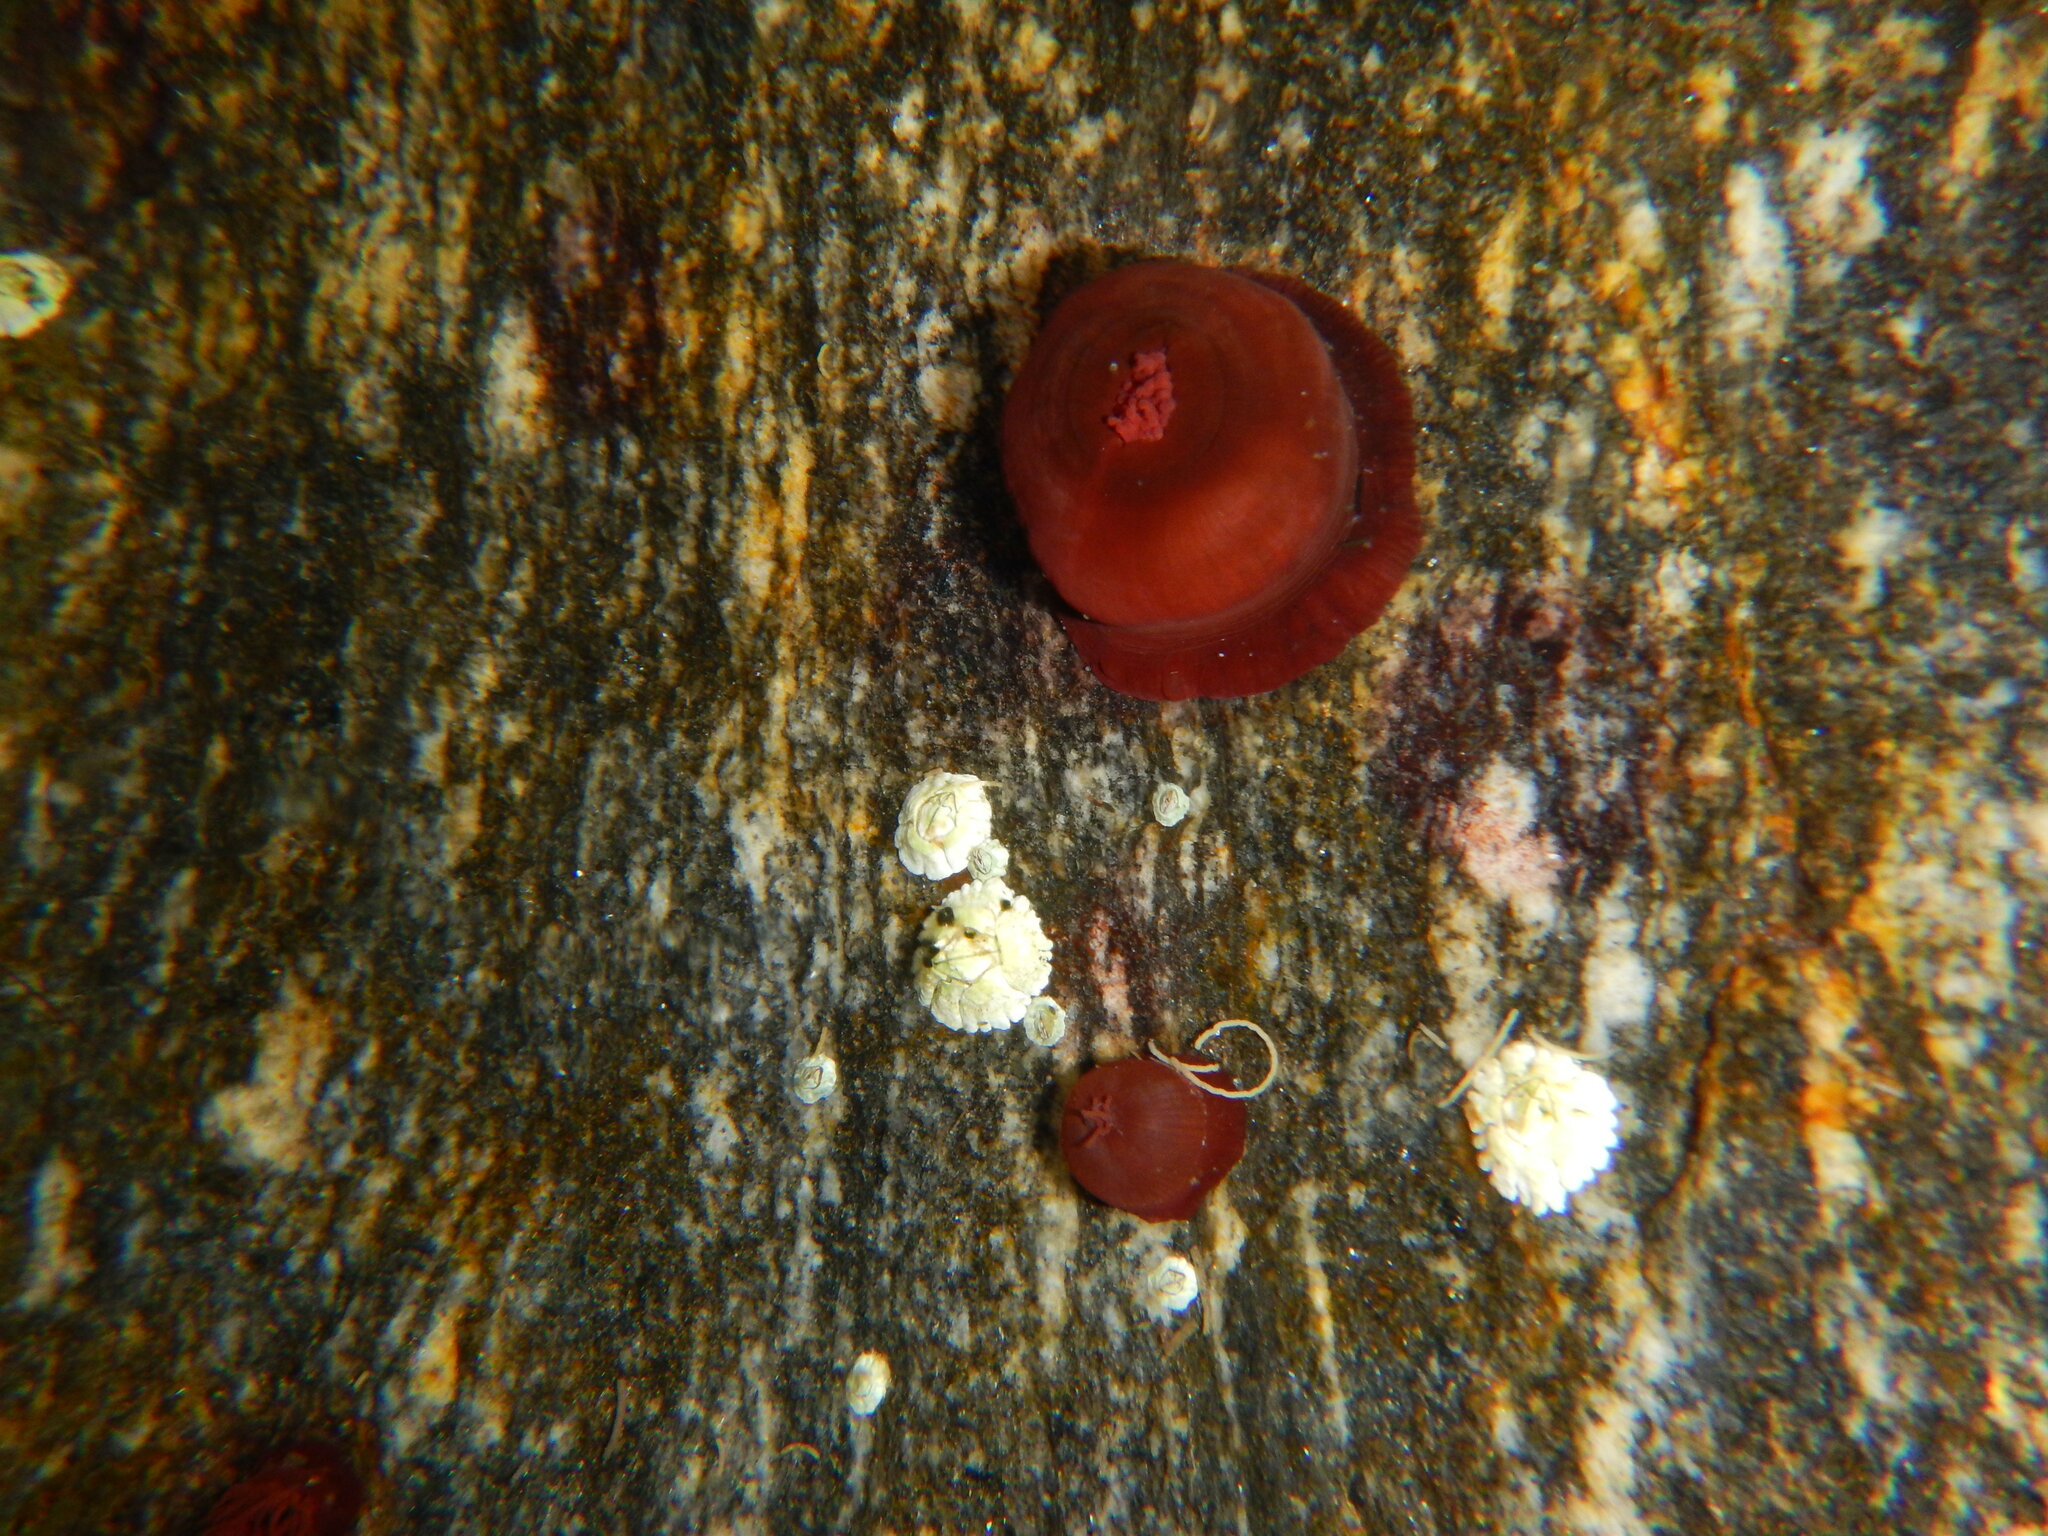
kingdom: Animalia
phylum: Cnidaria
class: Anthozoa
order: Actiniaria
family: Actiniidae
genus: Actinia
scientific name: Actinia equina
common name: Beadlet anemone
